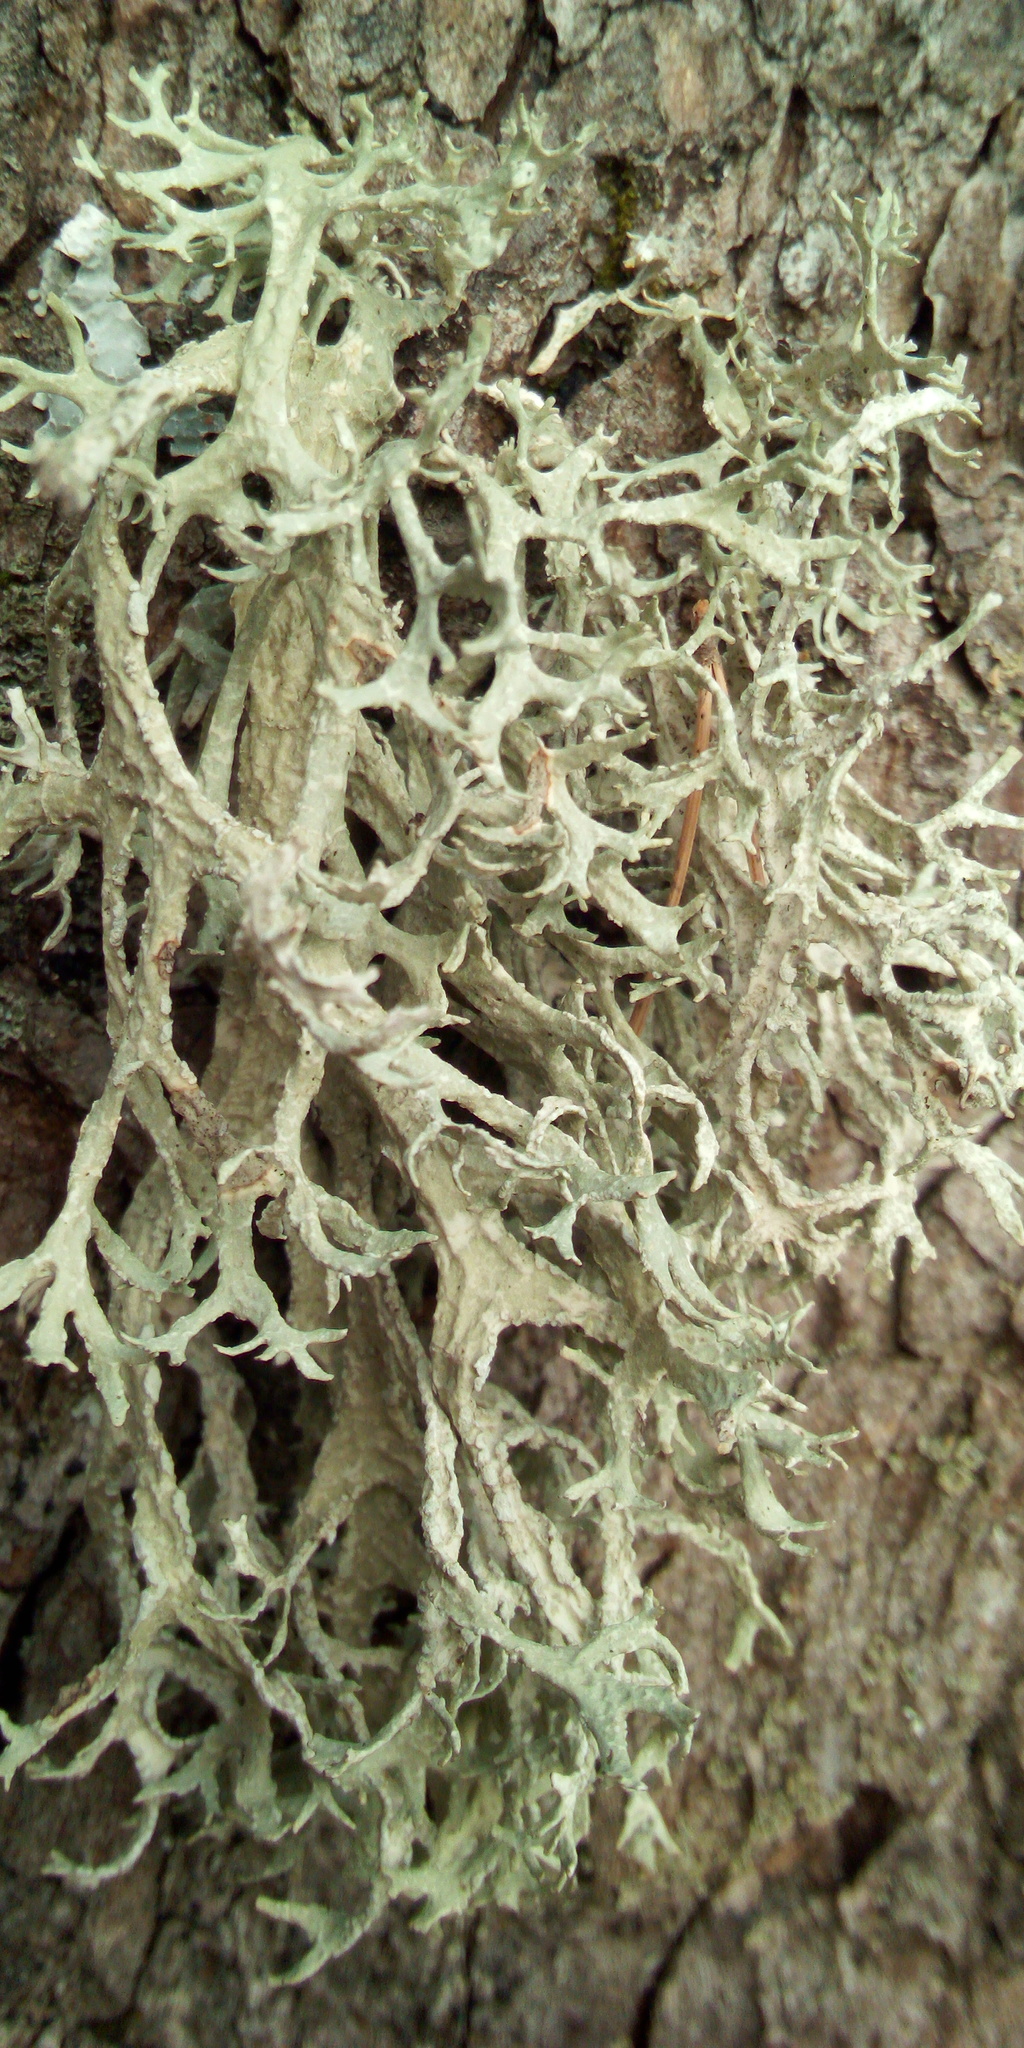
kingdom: Fungi
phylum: Ascomycota
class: Lecanoromycetes
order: Lecanorales
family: Parmeliaceae
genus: Evernia
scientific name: Evernia prunastri
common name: Oak moss
